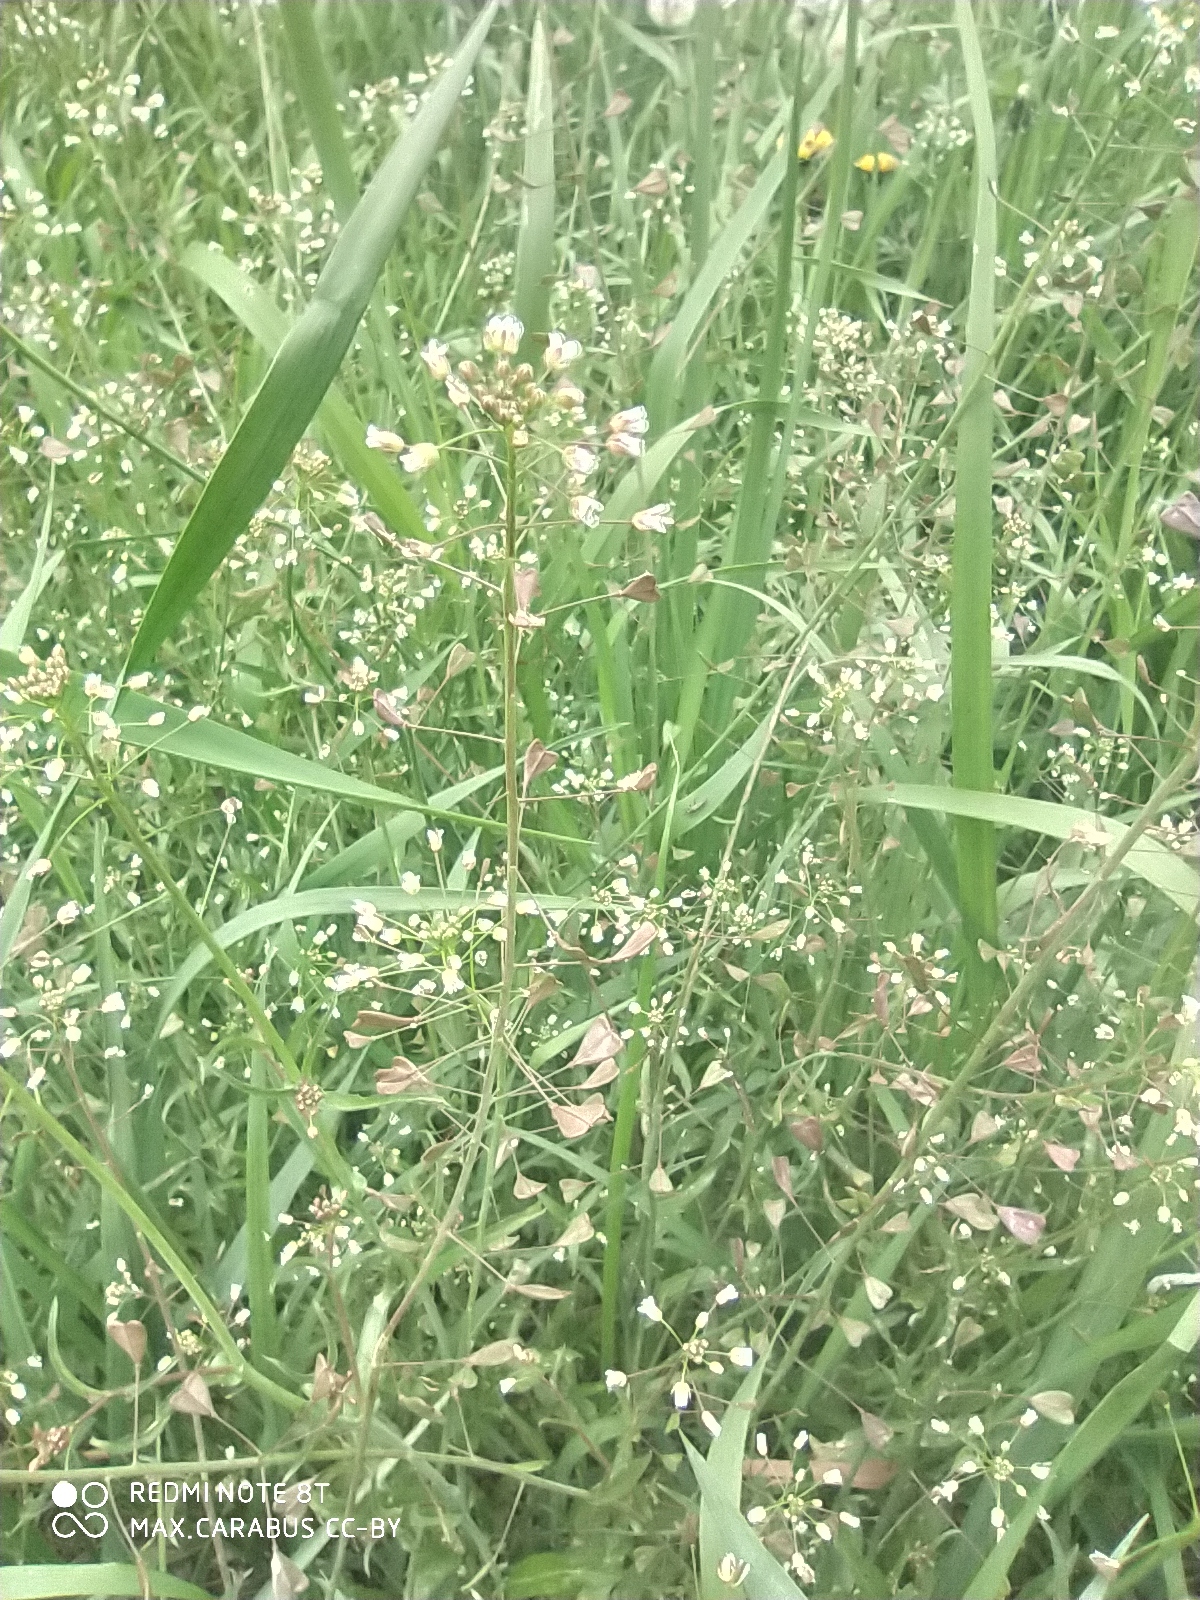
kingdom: Plantae
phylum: Tracheophyta
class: Magnoliopsida
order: Brassicales
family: Brassicaceae
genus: Capsella
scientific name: Capsella bursa-pastoris
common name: Shepherd's purse
